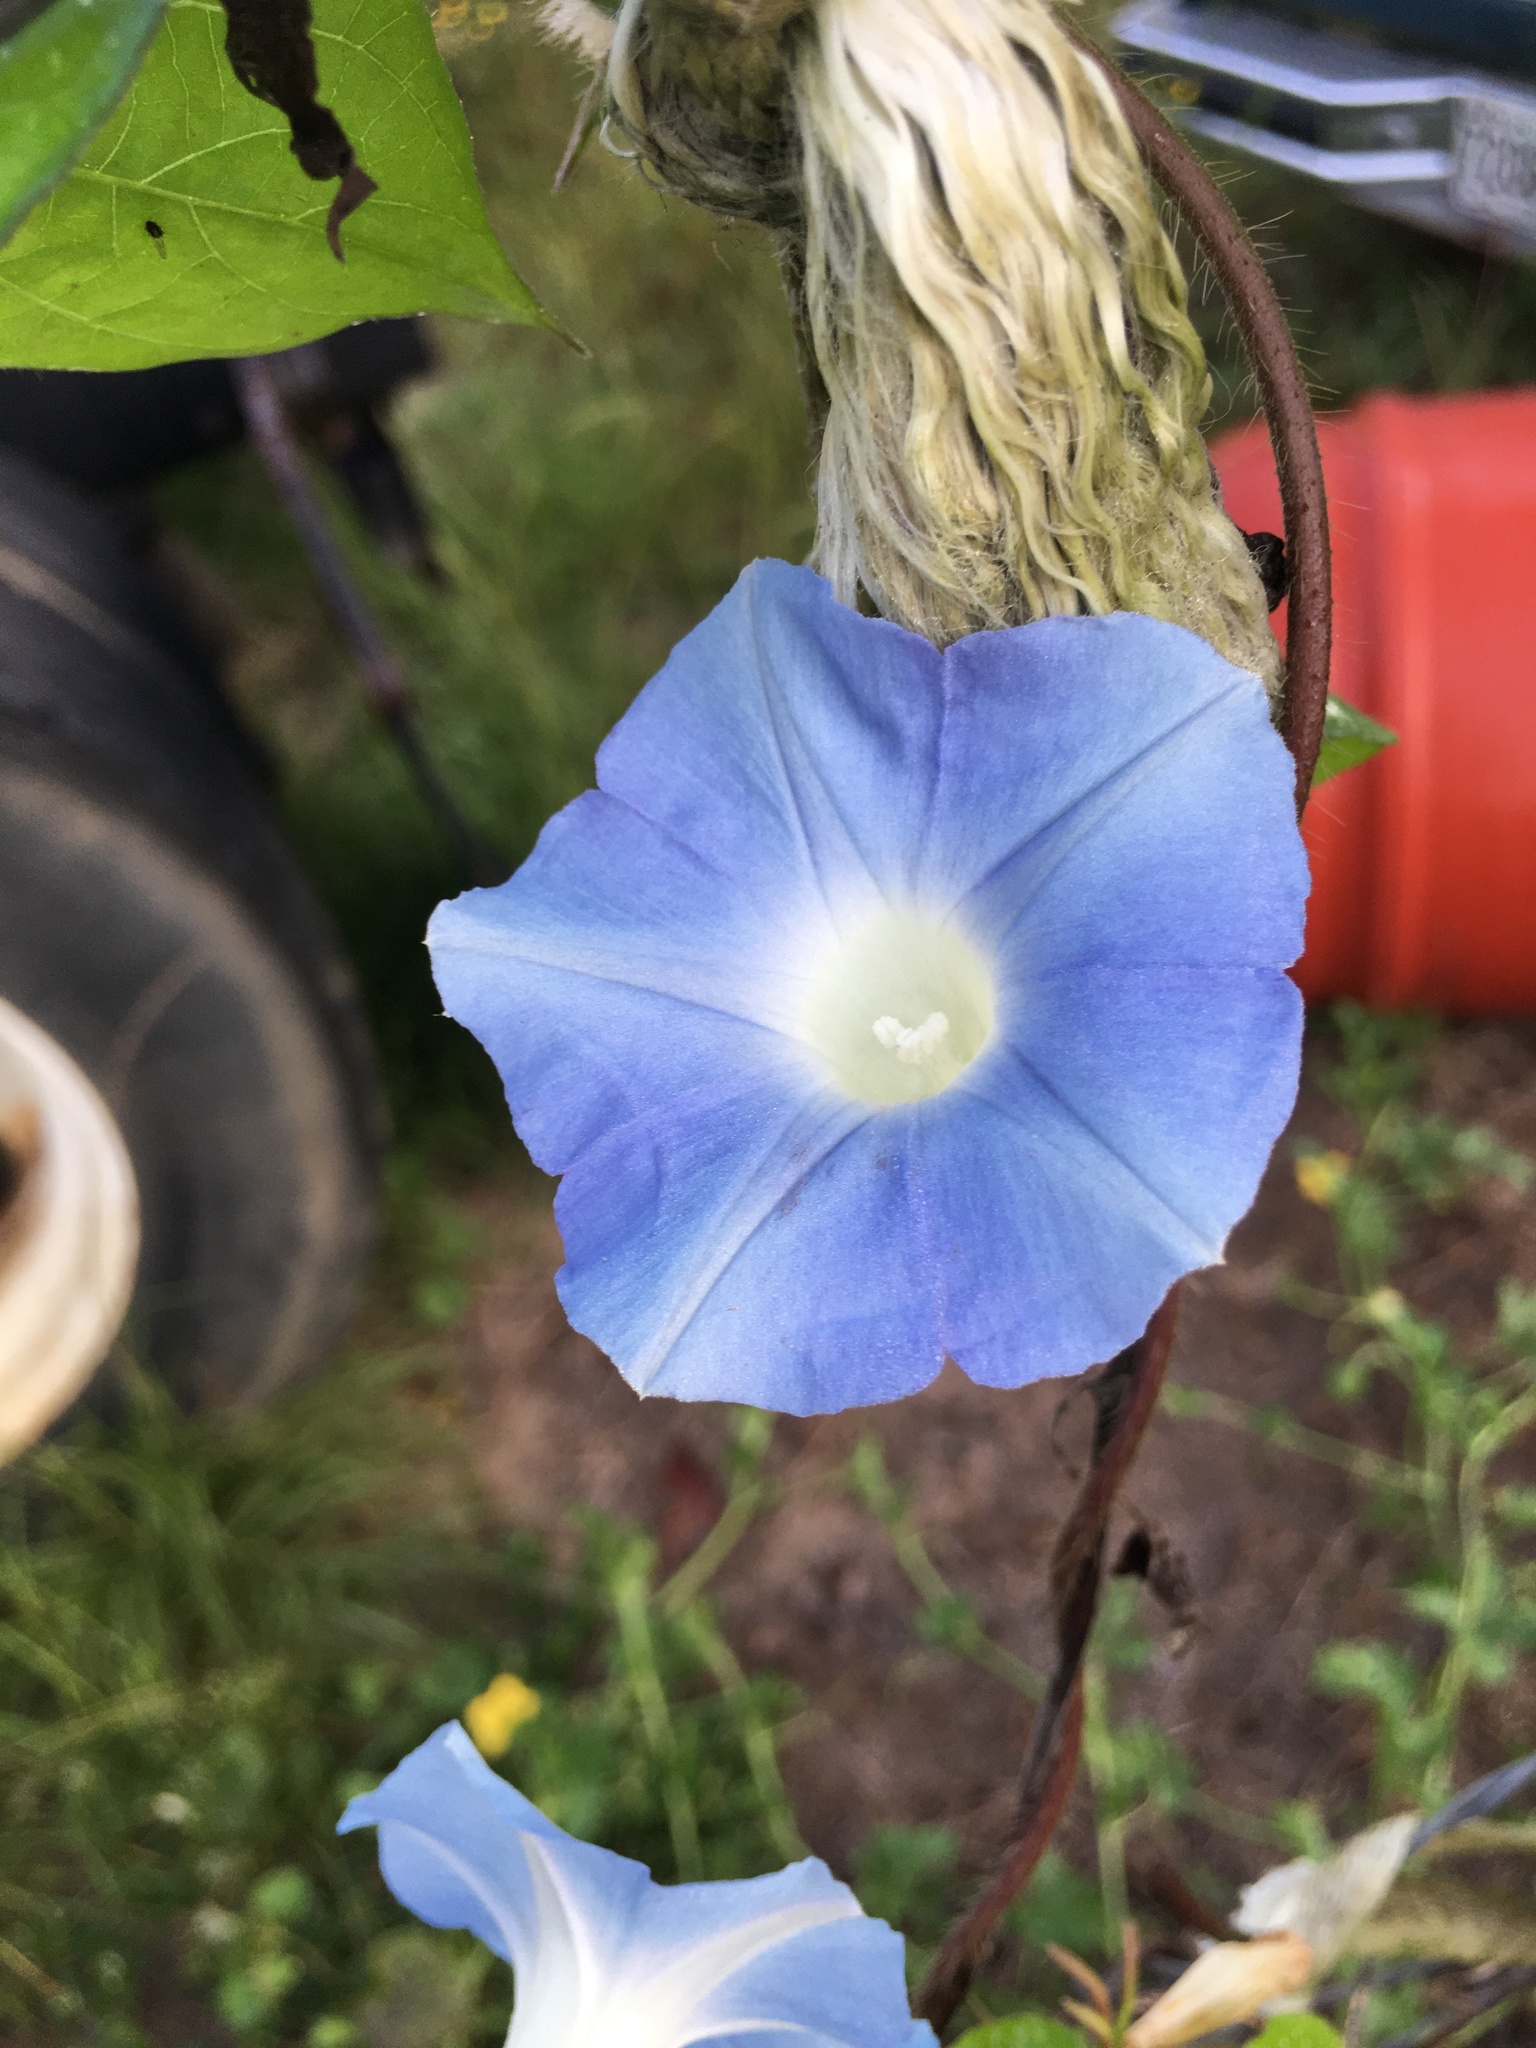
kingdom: Plantae
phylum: Tracheophyta
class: Magnoliopsida
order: Solanales
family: Convolvulaceae
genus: Ipomoea
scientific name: Ipomoea hederacea
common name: Ivy-leaved morning-glory
